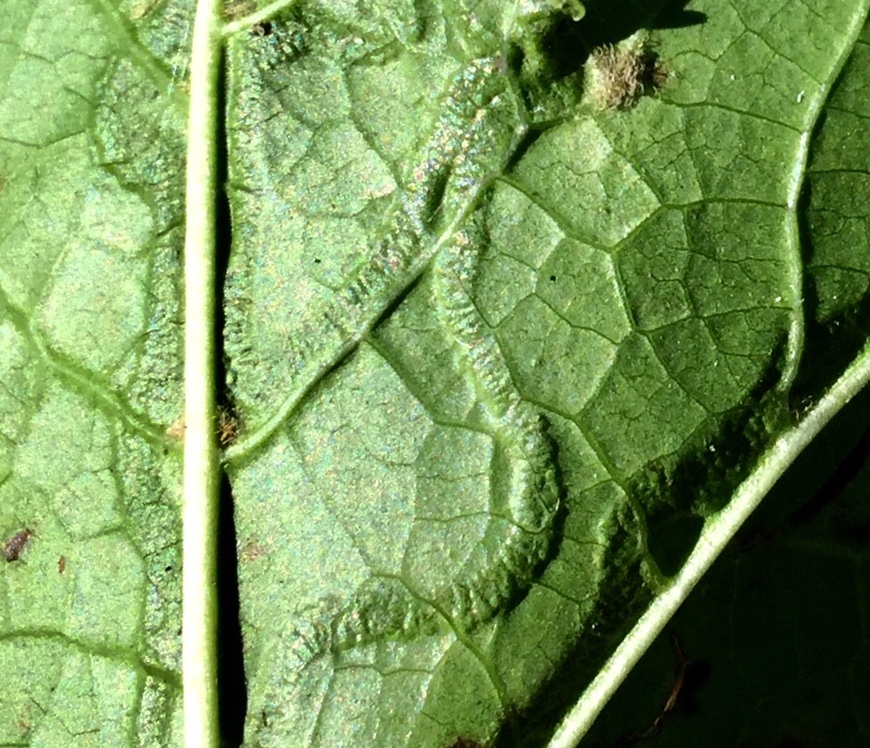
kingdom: Animalia
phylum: Arthropoda
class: Insecta
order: Lepidoptera
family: Gracillariidae
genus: Phyllocnistis
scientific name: Phyllocnistis liquidambarisella
